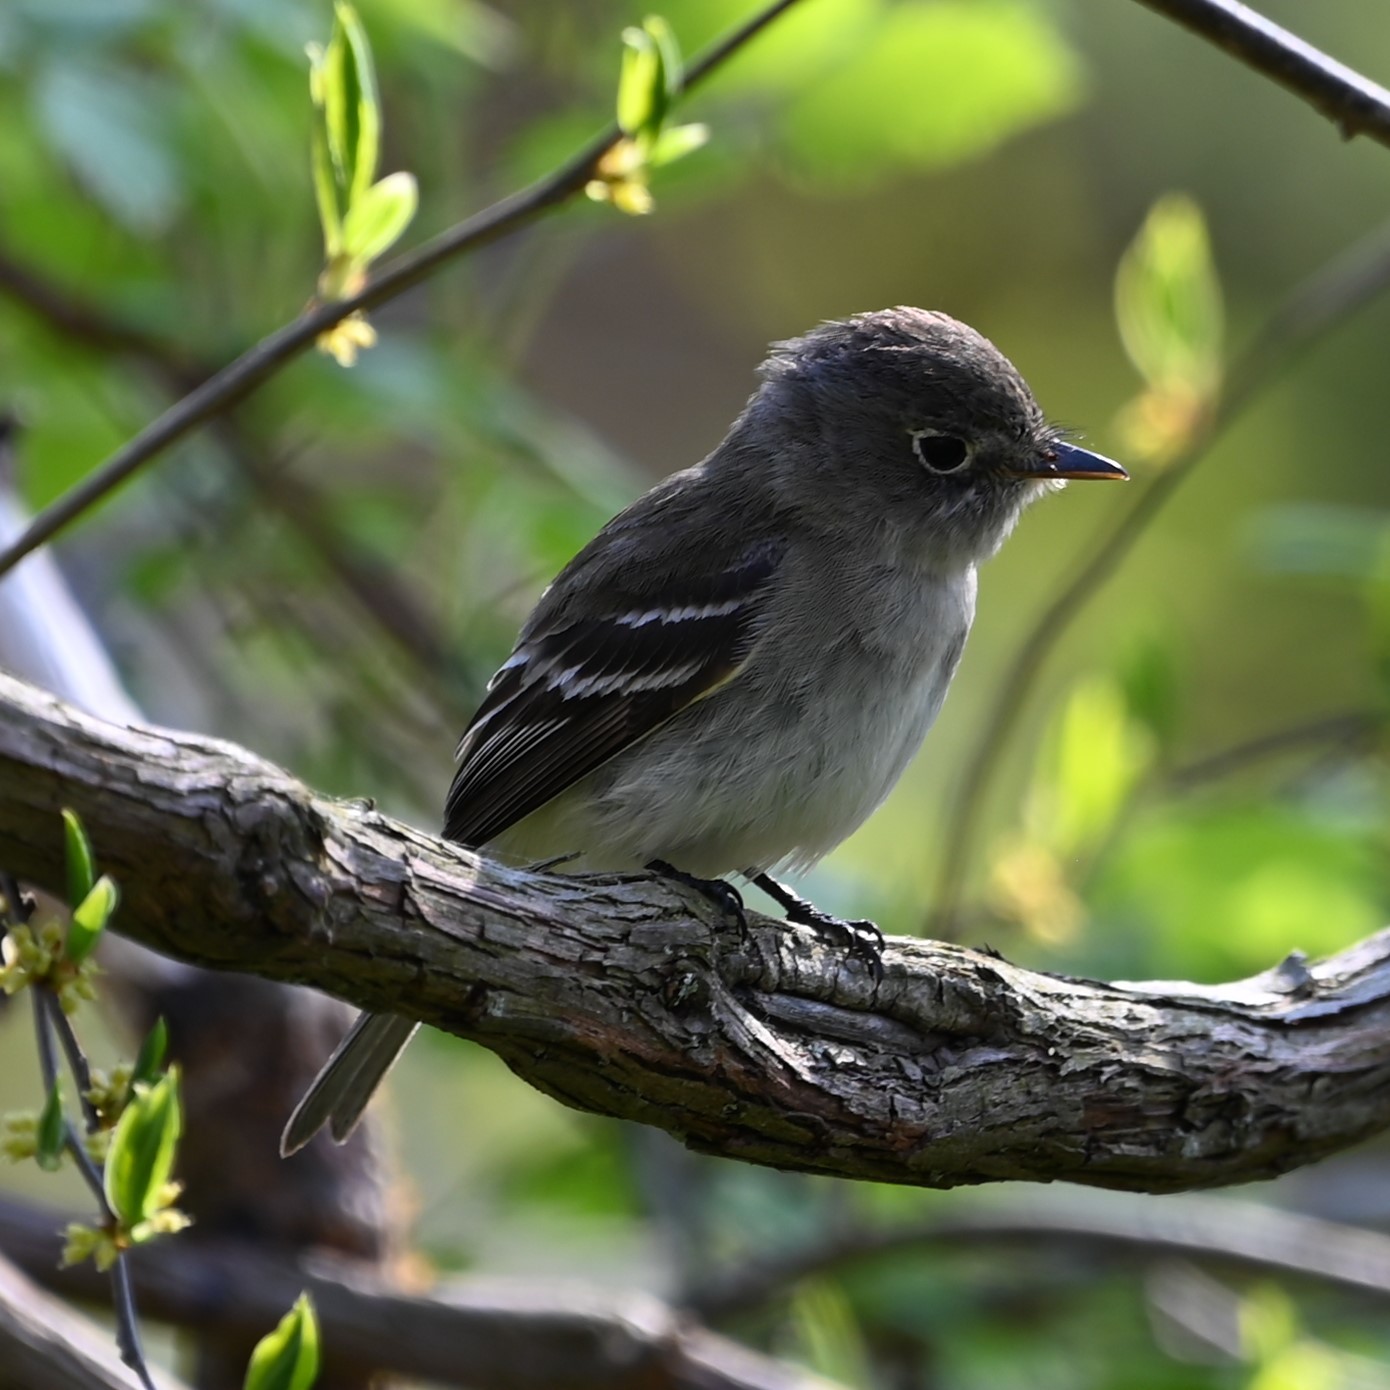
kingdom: Animalia
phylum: Chordata
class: Aves
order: Passeriformes
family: Tyrannidae
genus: Empidonax
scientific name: Empidonax minimus
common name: Least flycatcher
